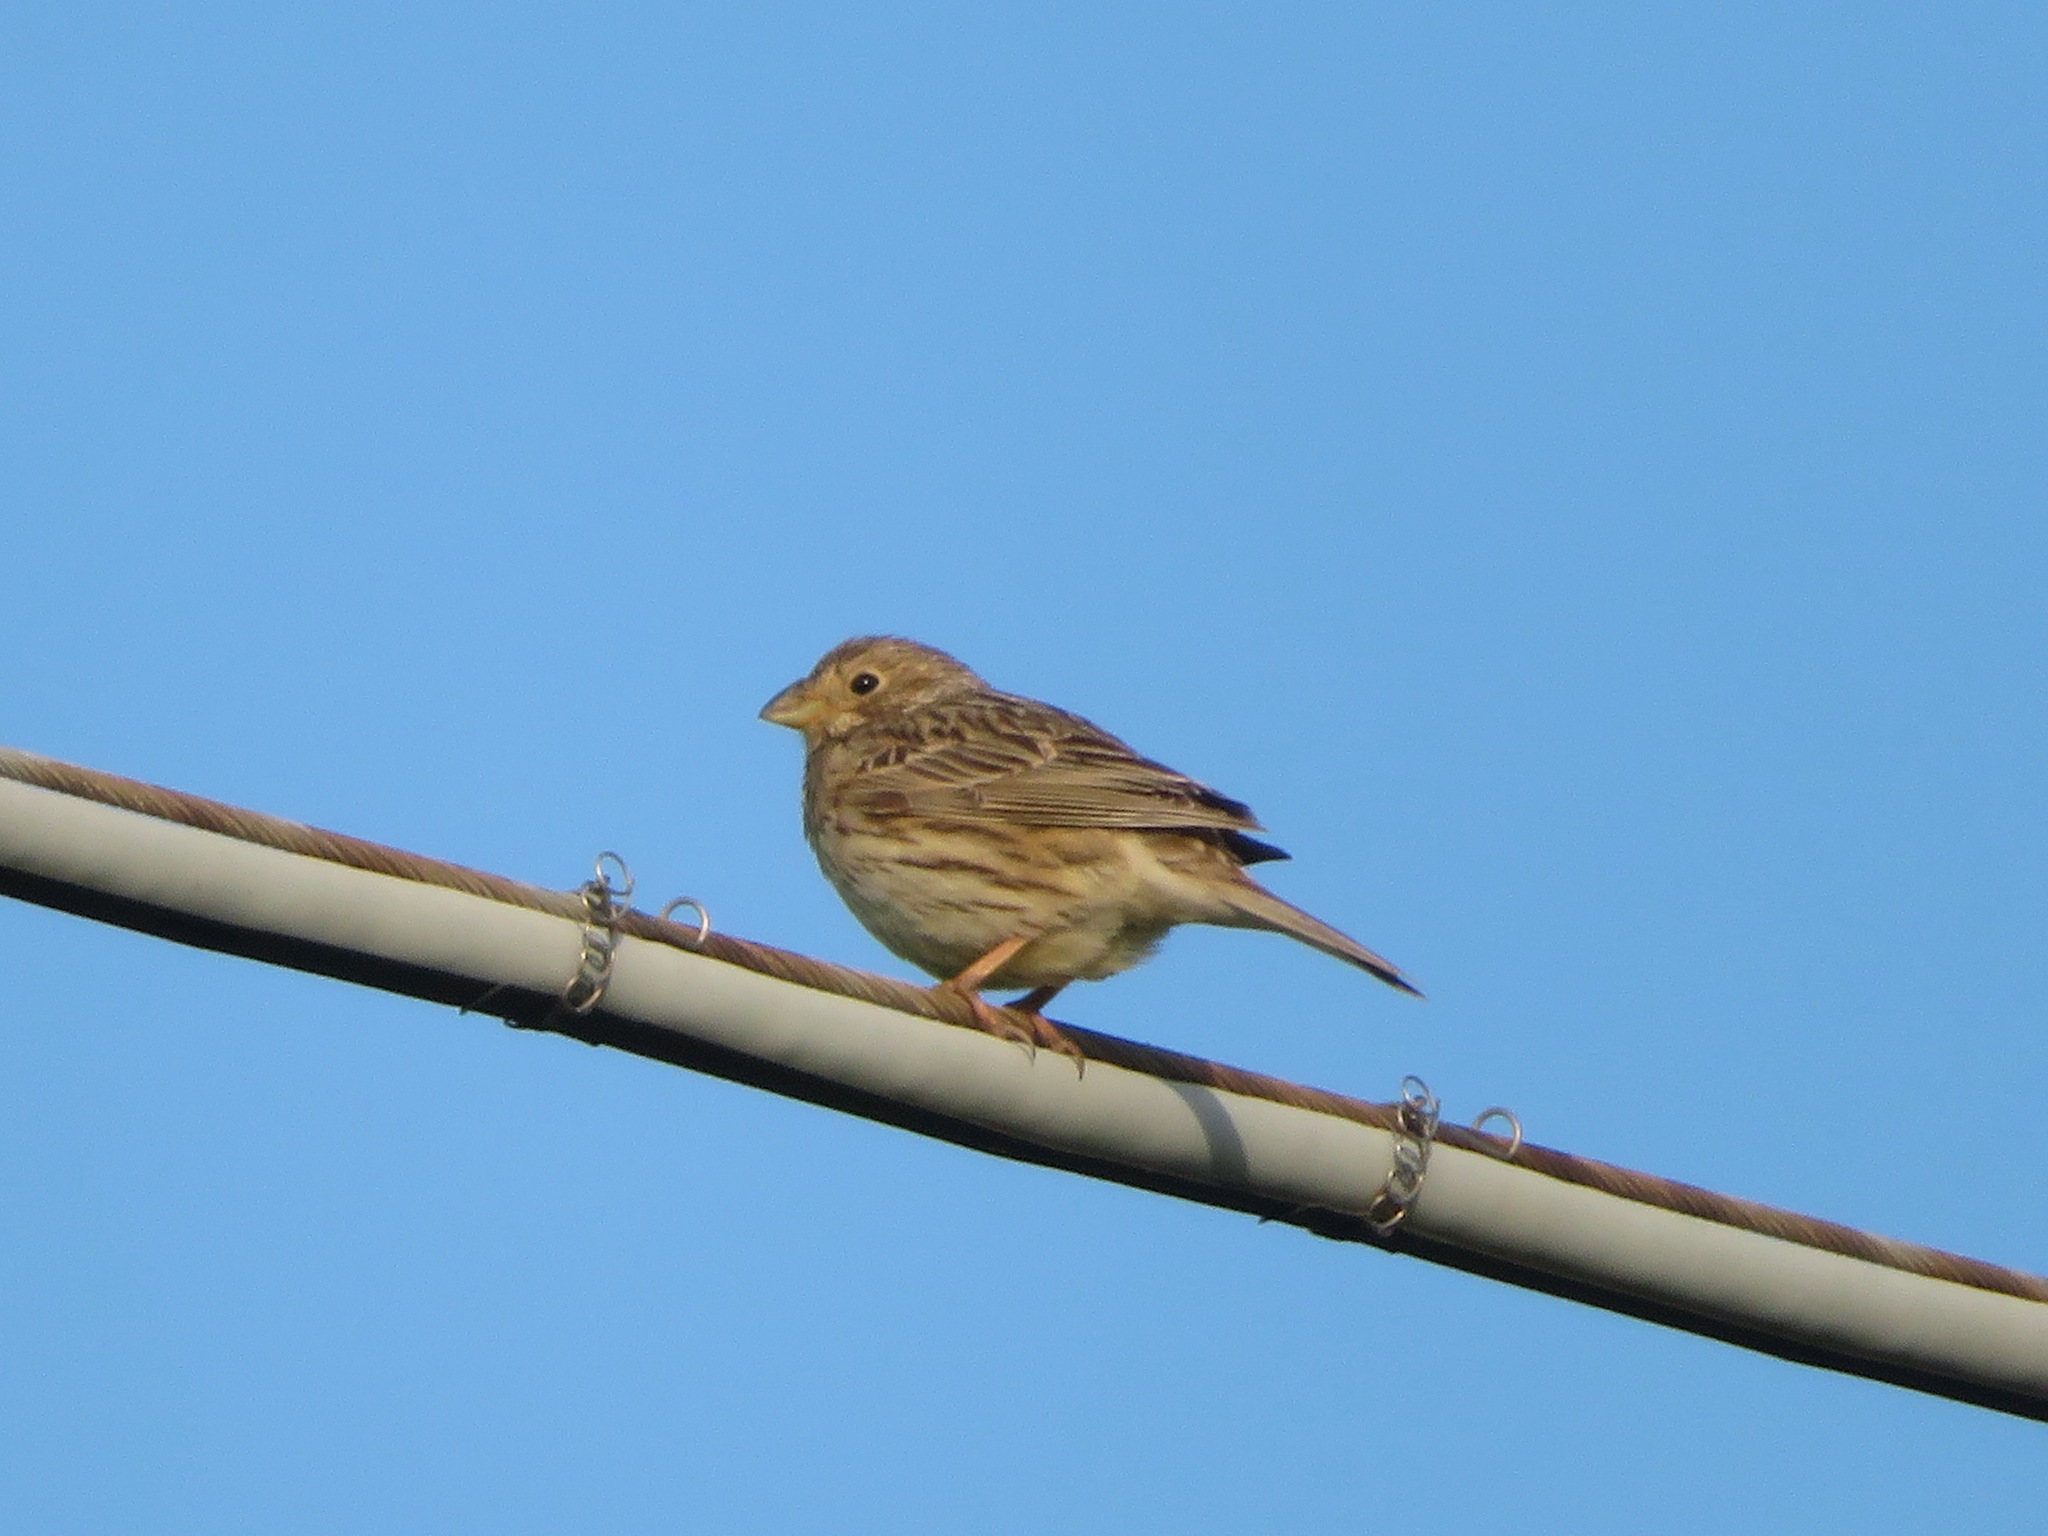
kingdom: Animalia
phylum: Chordata
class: Aves
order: Passeriformes
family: Emberizidae
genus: Emberiza
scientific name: Emberiza calandra
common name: Corn bunting
